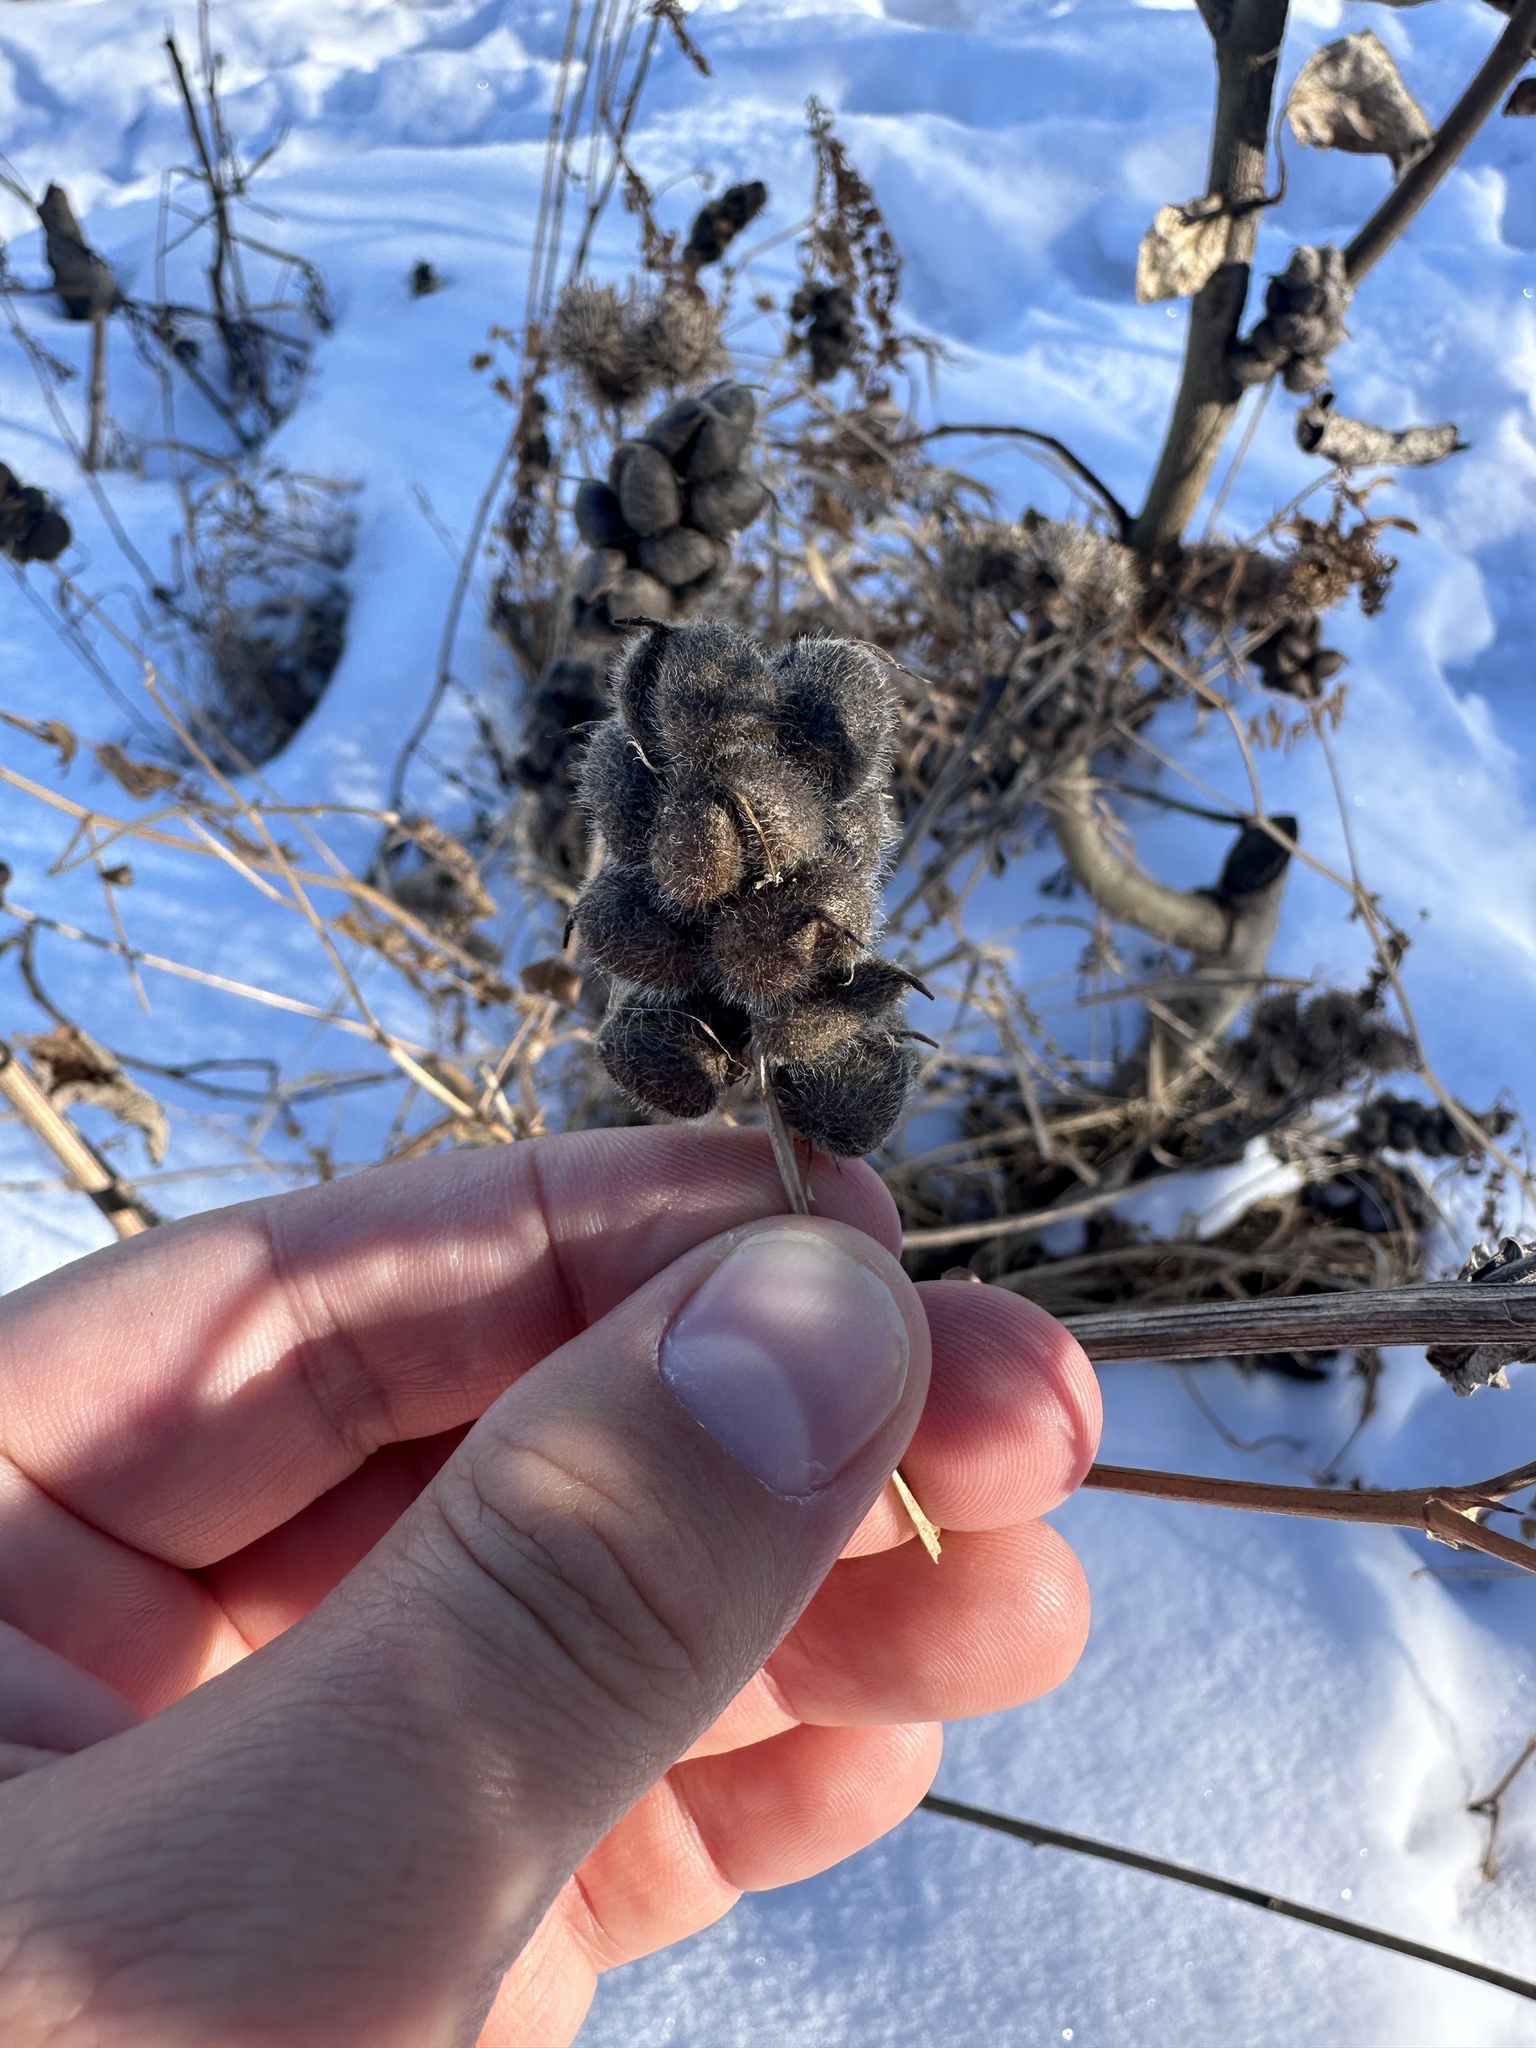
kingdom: Plantae
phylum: Tracheophyta
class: Magnoliopsida
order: Fabales
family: Fabaceae
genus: Astragalus
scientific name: Astragalus cicer
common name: Chick-pea milk-vetch
